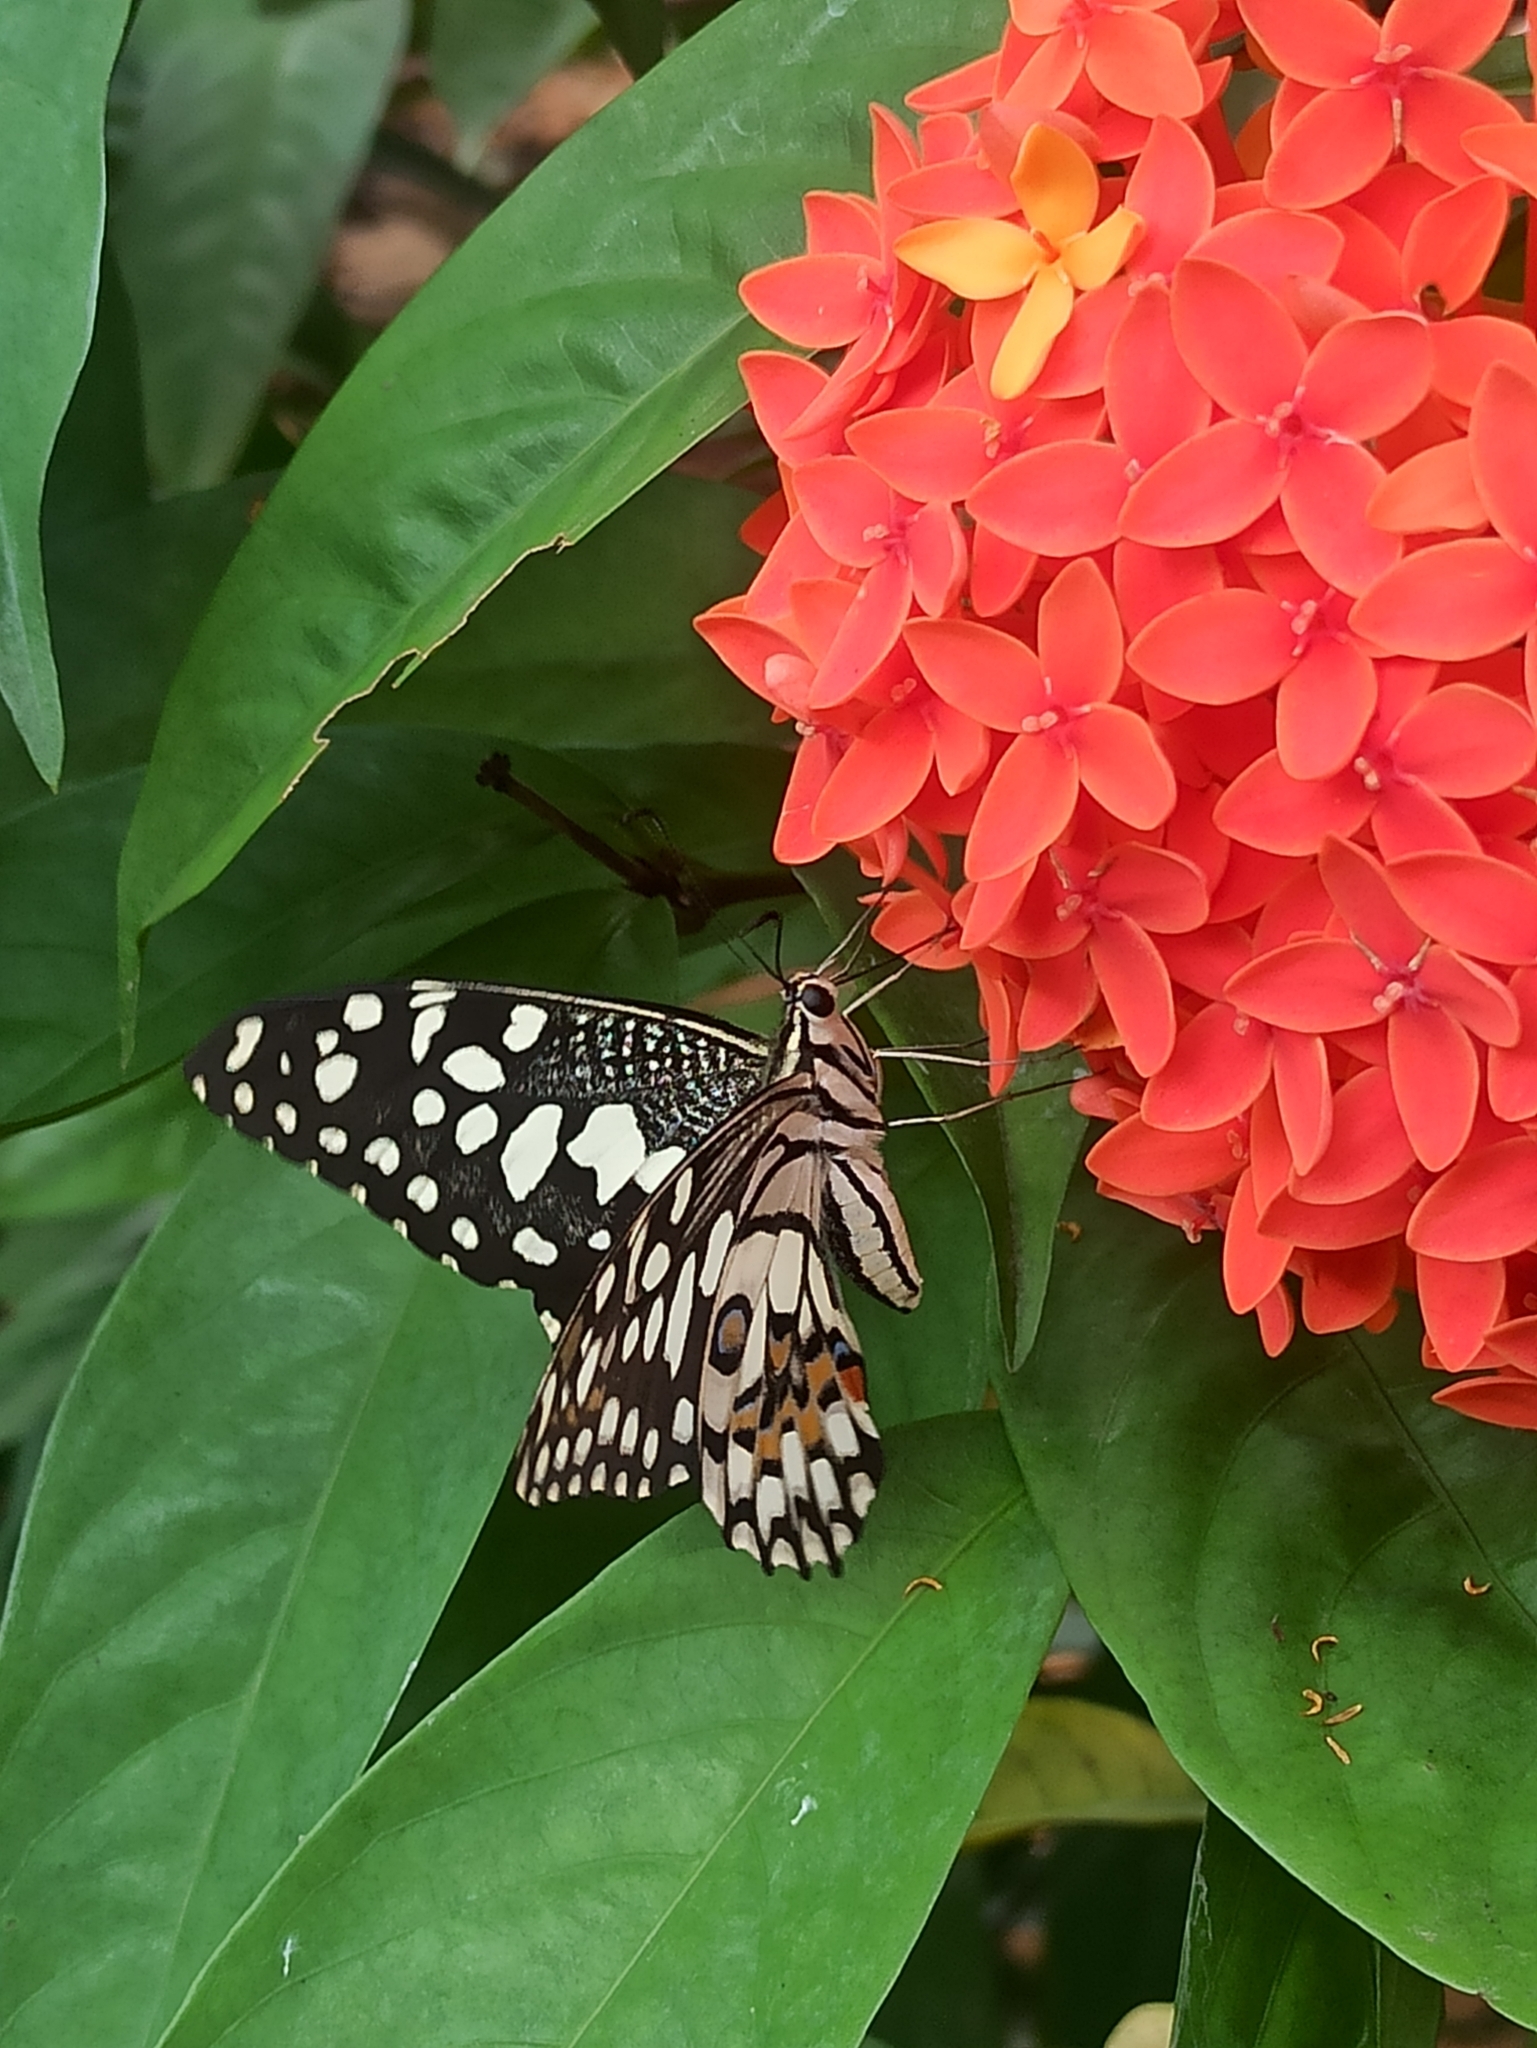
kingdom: Animalia
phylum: Arthropoda
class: Insecta
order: Lepidoptera
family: Papilionidae
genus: Papilio
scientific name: Papilio demoleus
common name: Lime butterfly
